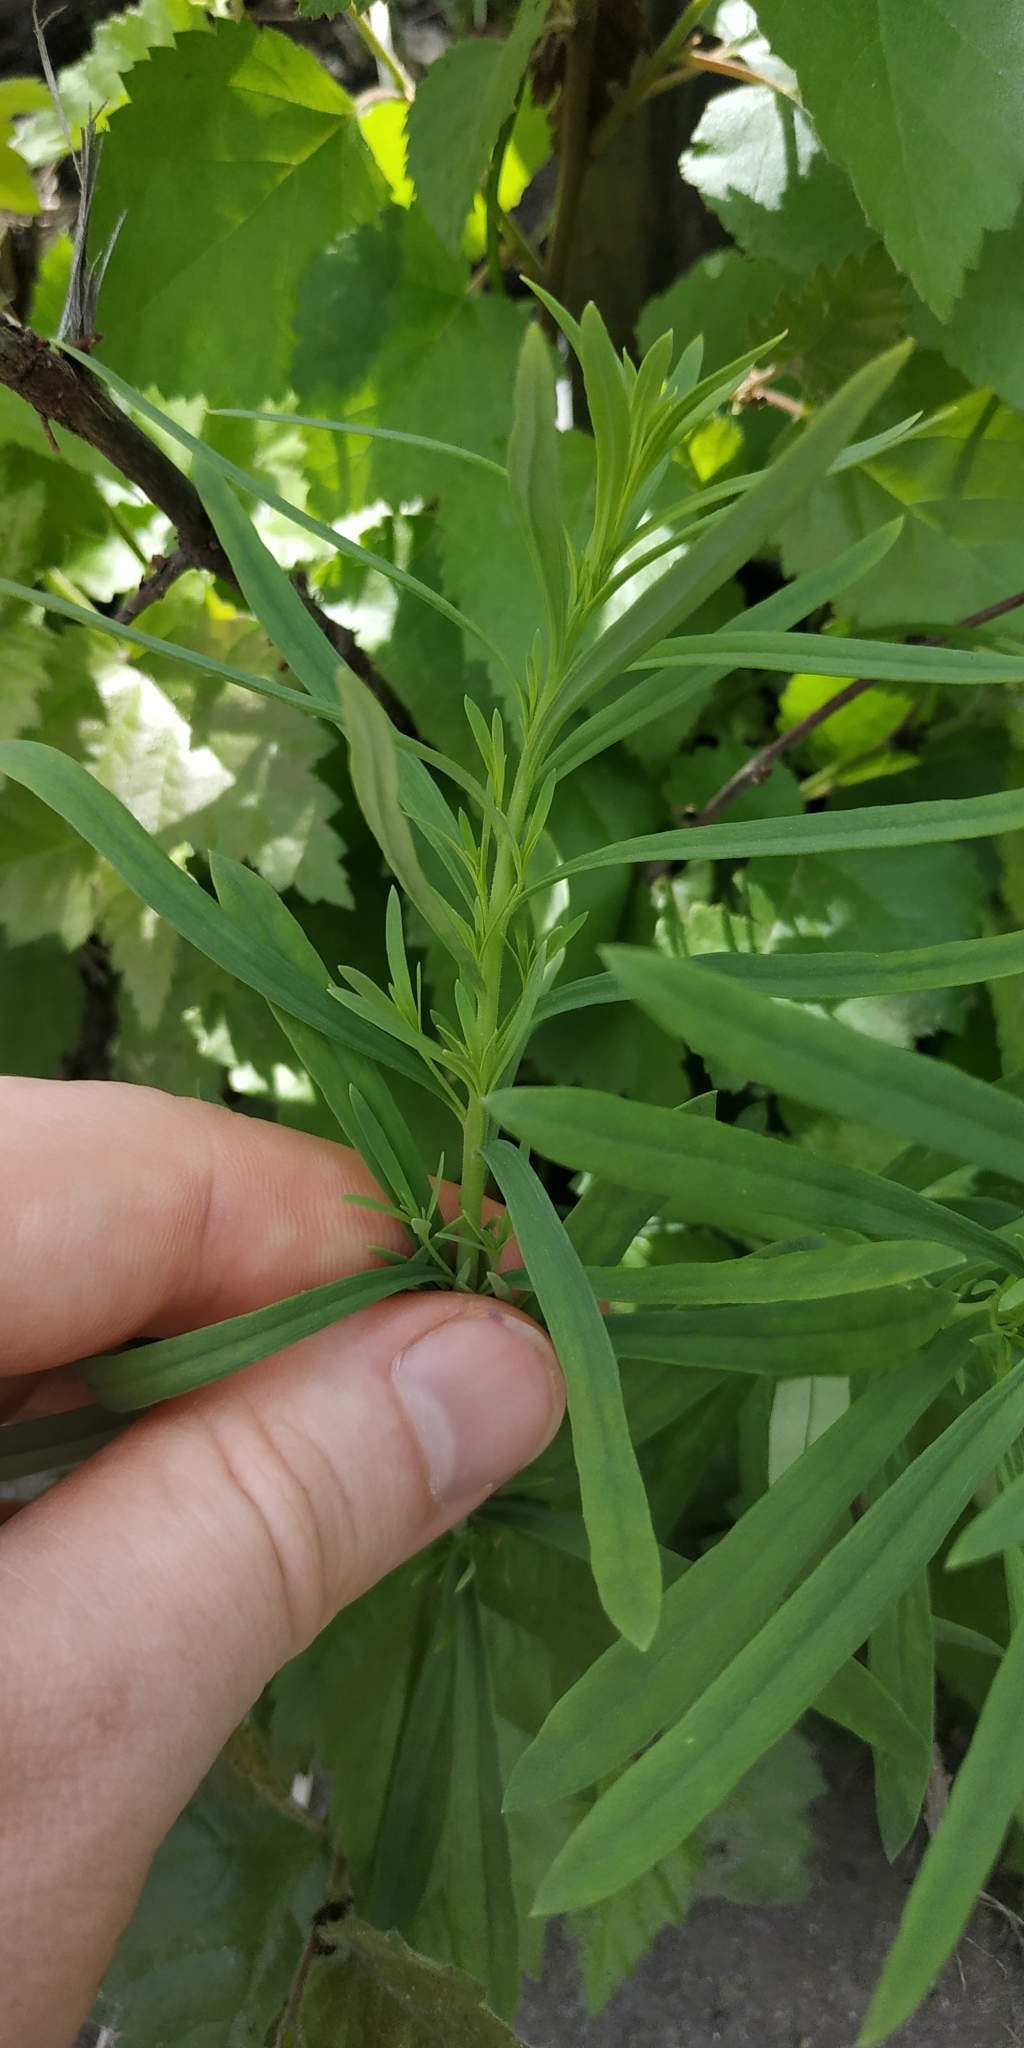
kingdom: Plantae
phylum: Tracheophyta
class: Magnoliopsida
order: Lamiales
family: Plantaginaceae
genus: Linaria
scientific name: Linaria vulgaris
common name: Butter and eggs
